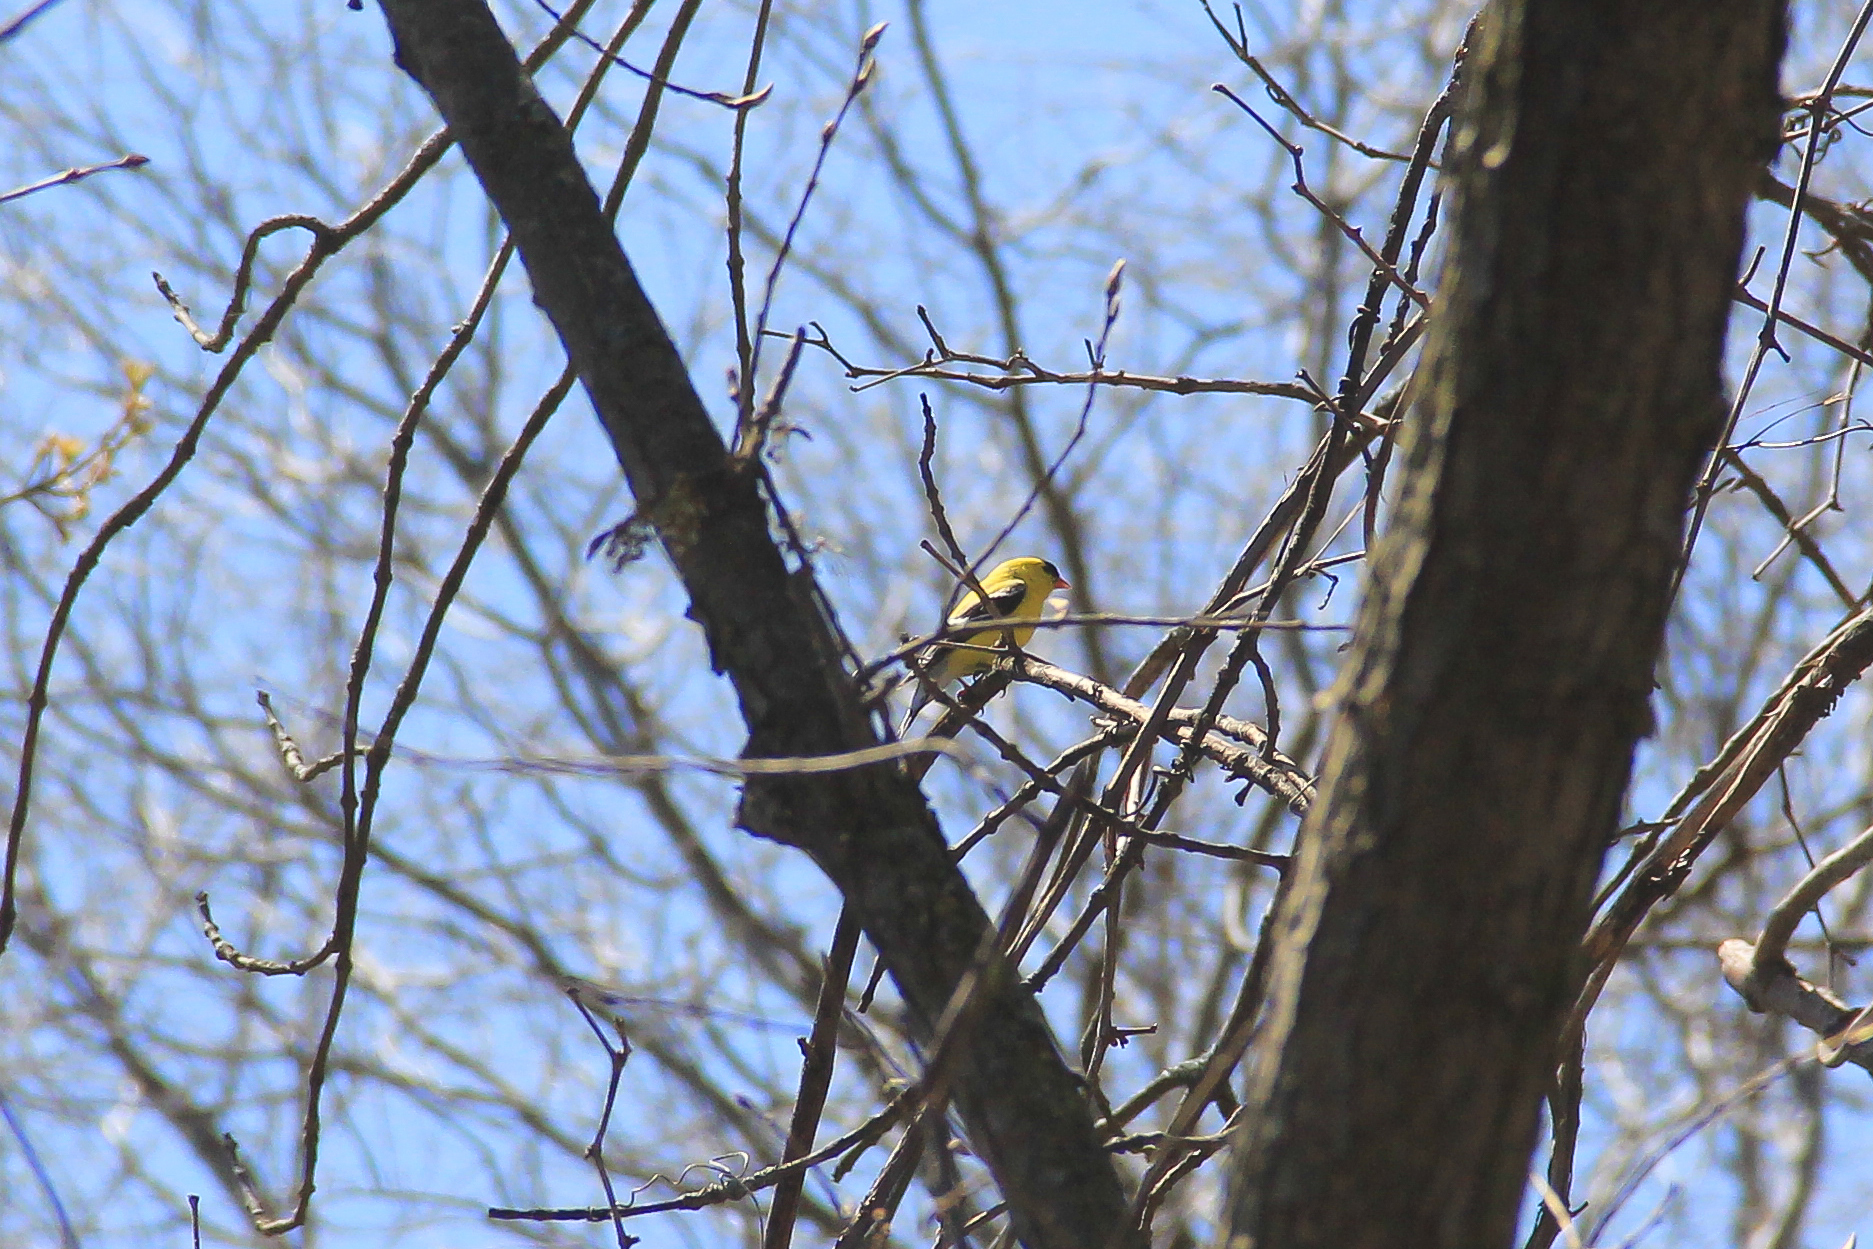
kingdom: Animalia
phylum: Chordata
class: Aves
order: Passeriformes
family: Fringillidae
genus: Spinus
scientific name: Spinus tristis
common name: American goldfinch
